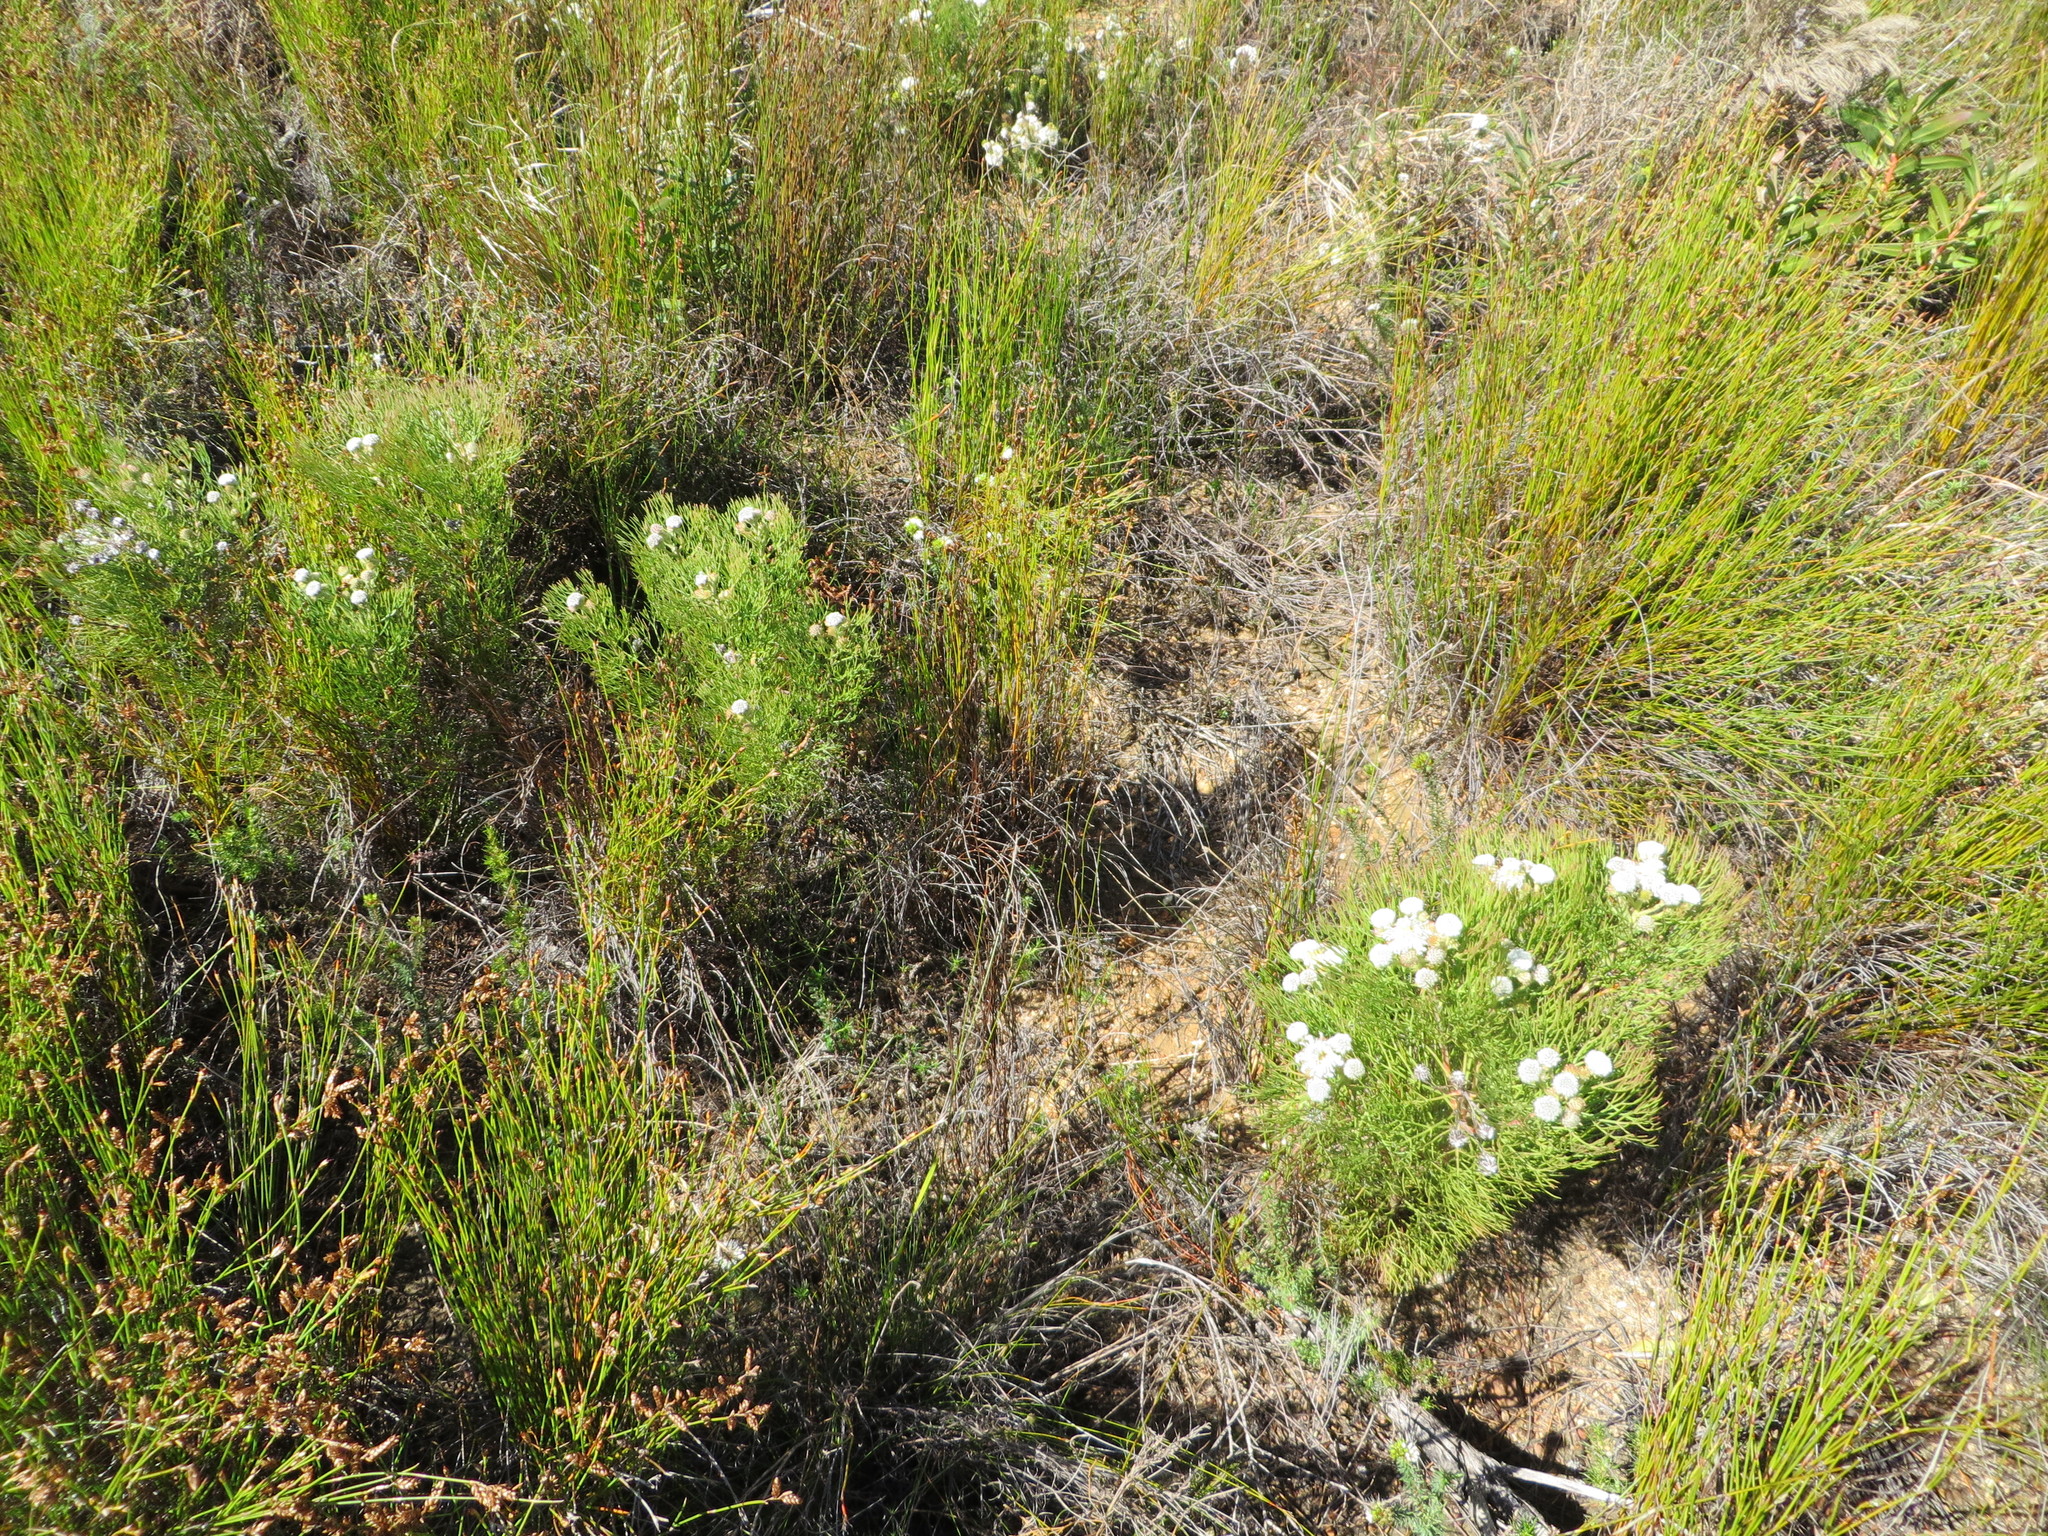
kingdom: Plantae
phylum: Tracheophyta
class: Magnoliopsida
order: Proteales
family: Proteaceae
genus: Serruria
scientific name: Serruria kraussii
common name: Snowball spiderhead
